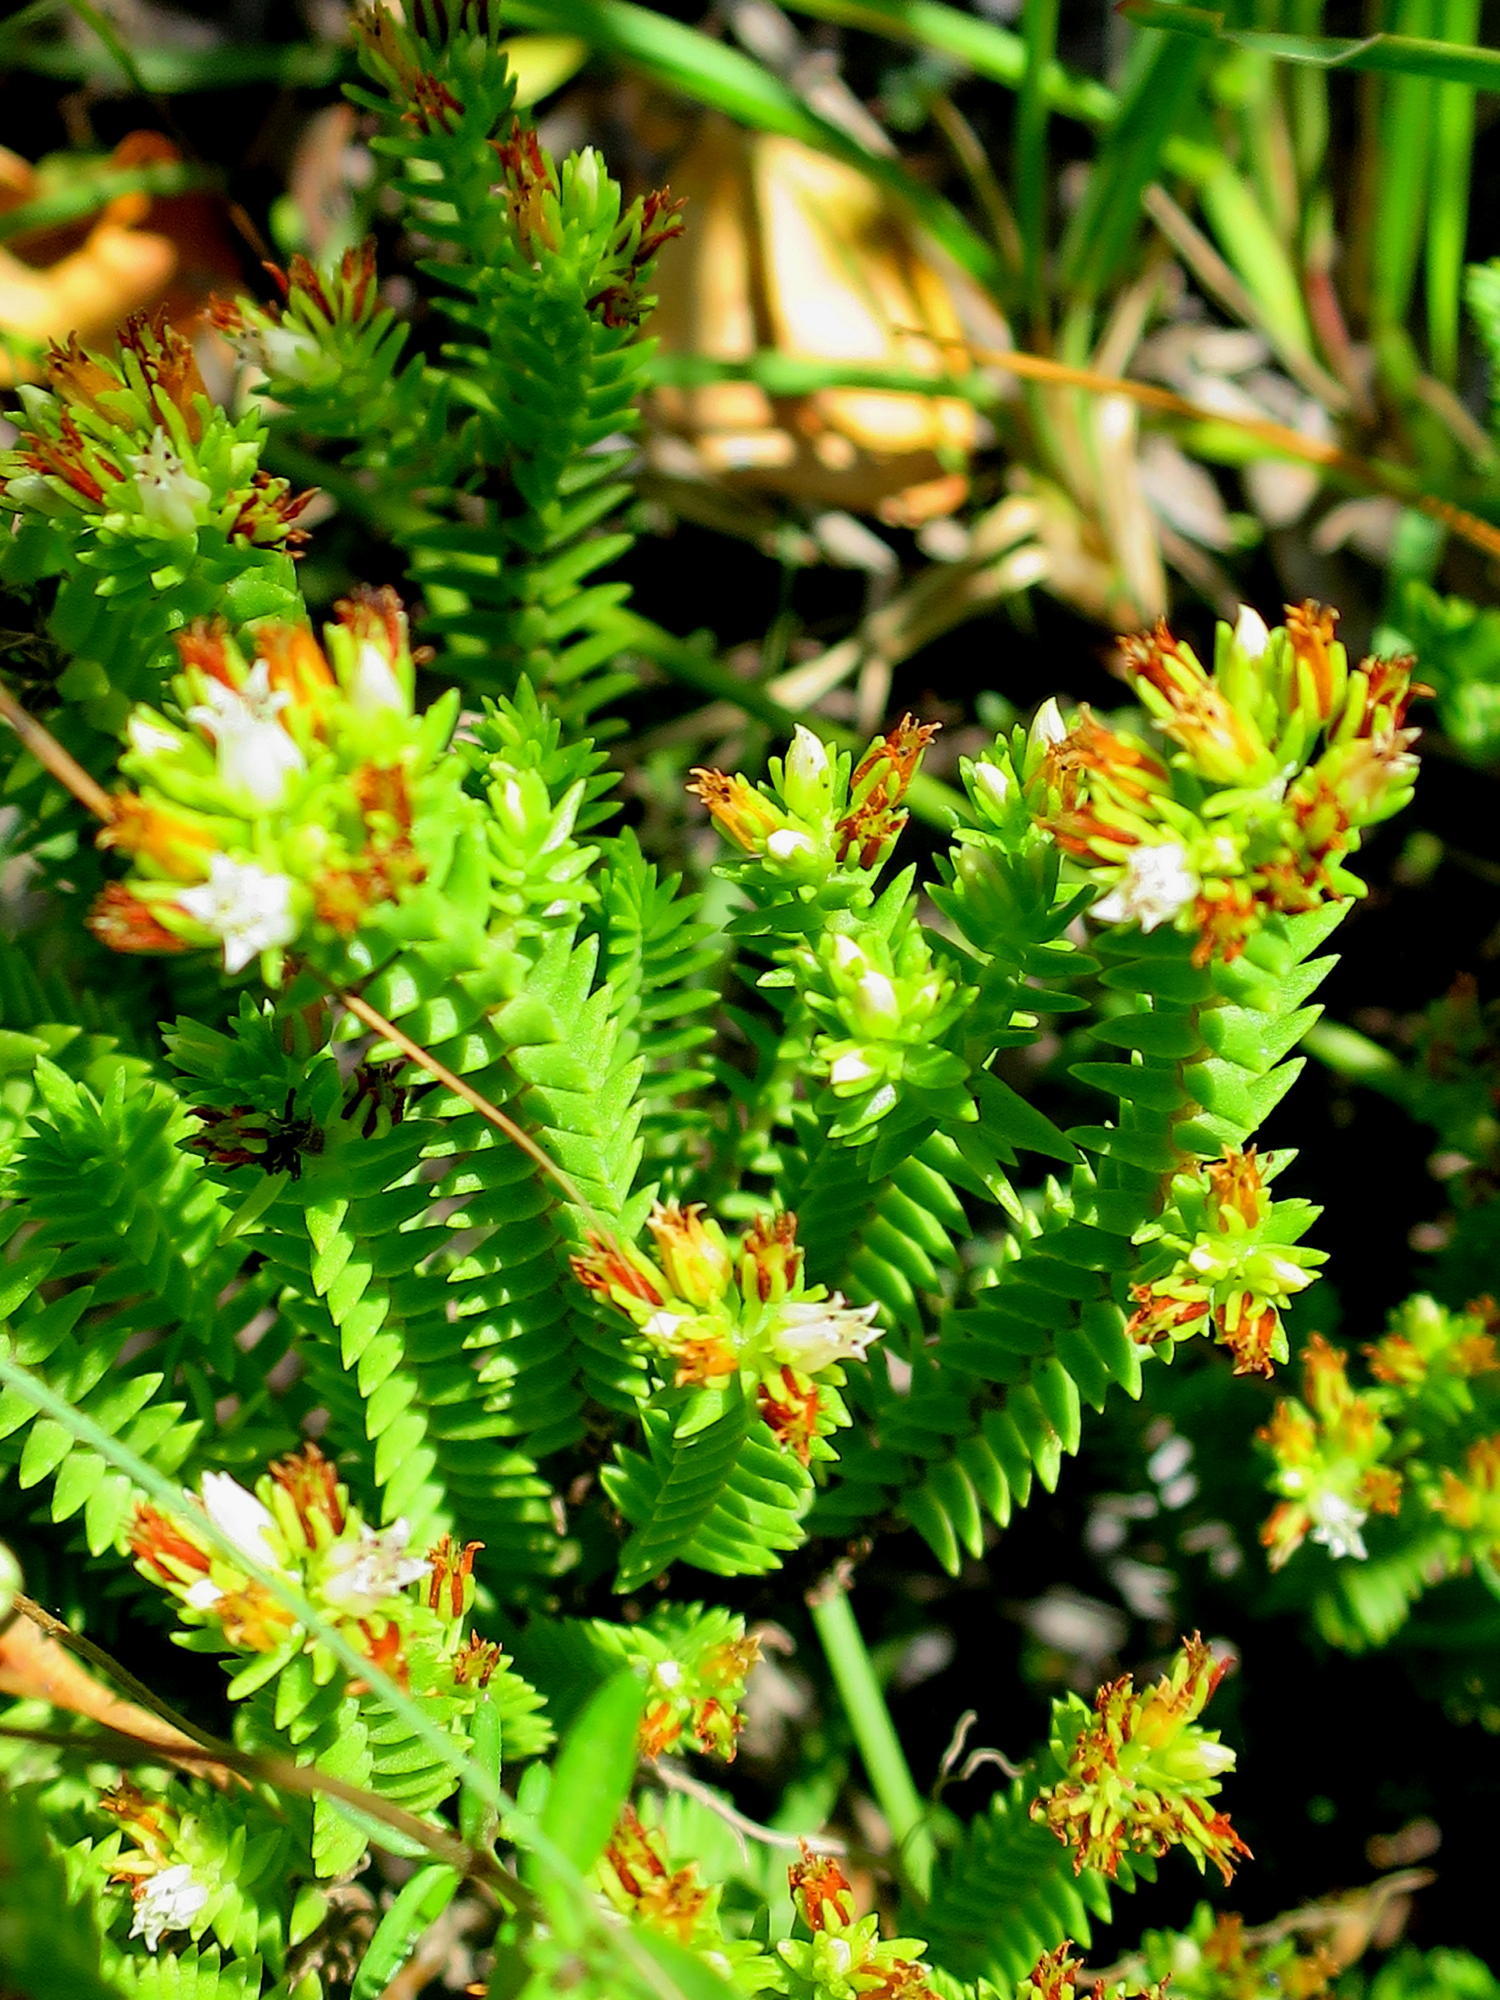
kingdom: Plantae
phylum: Tracheophyta
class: Magnoliopsida
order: Saxifragales
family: Crassulaceae
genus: Crassula
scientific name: Crassula ericoides
